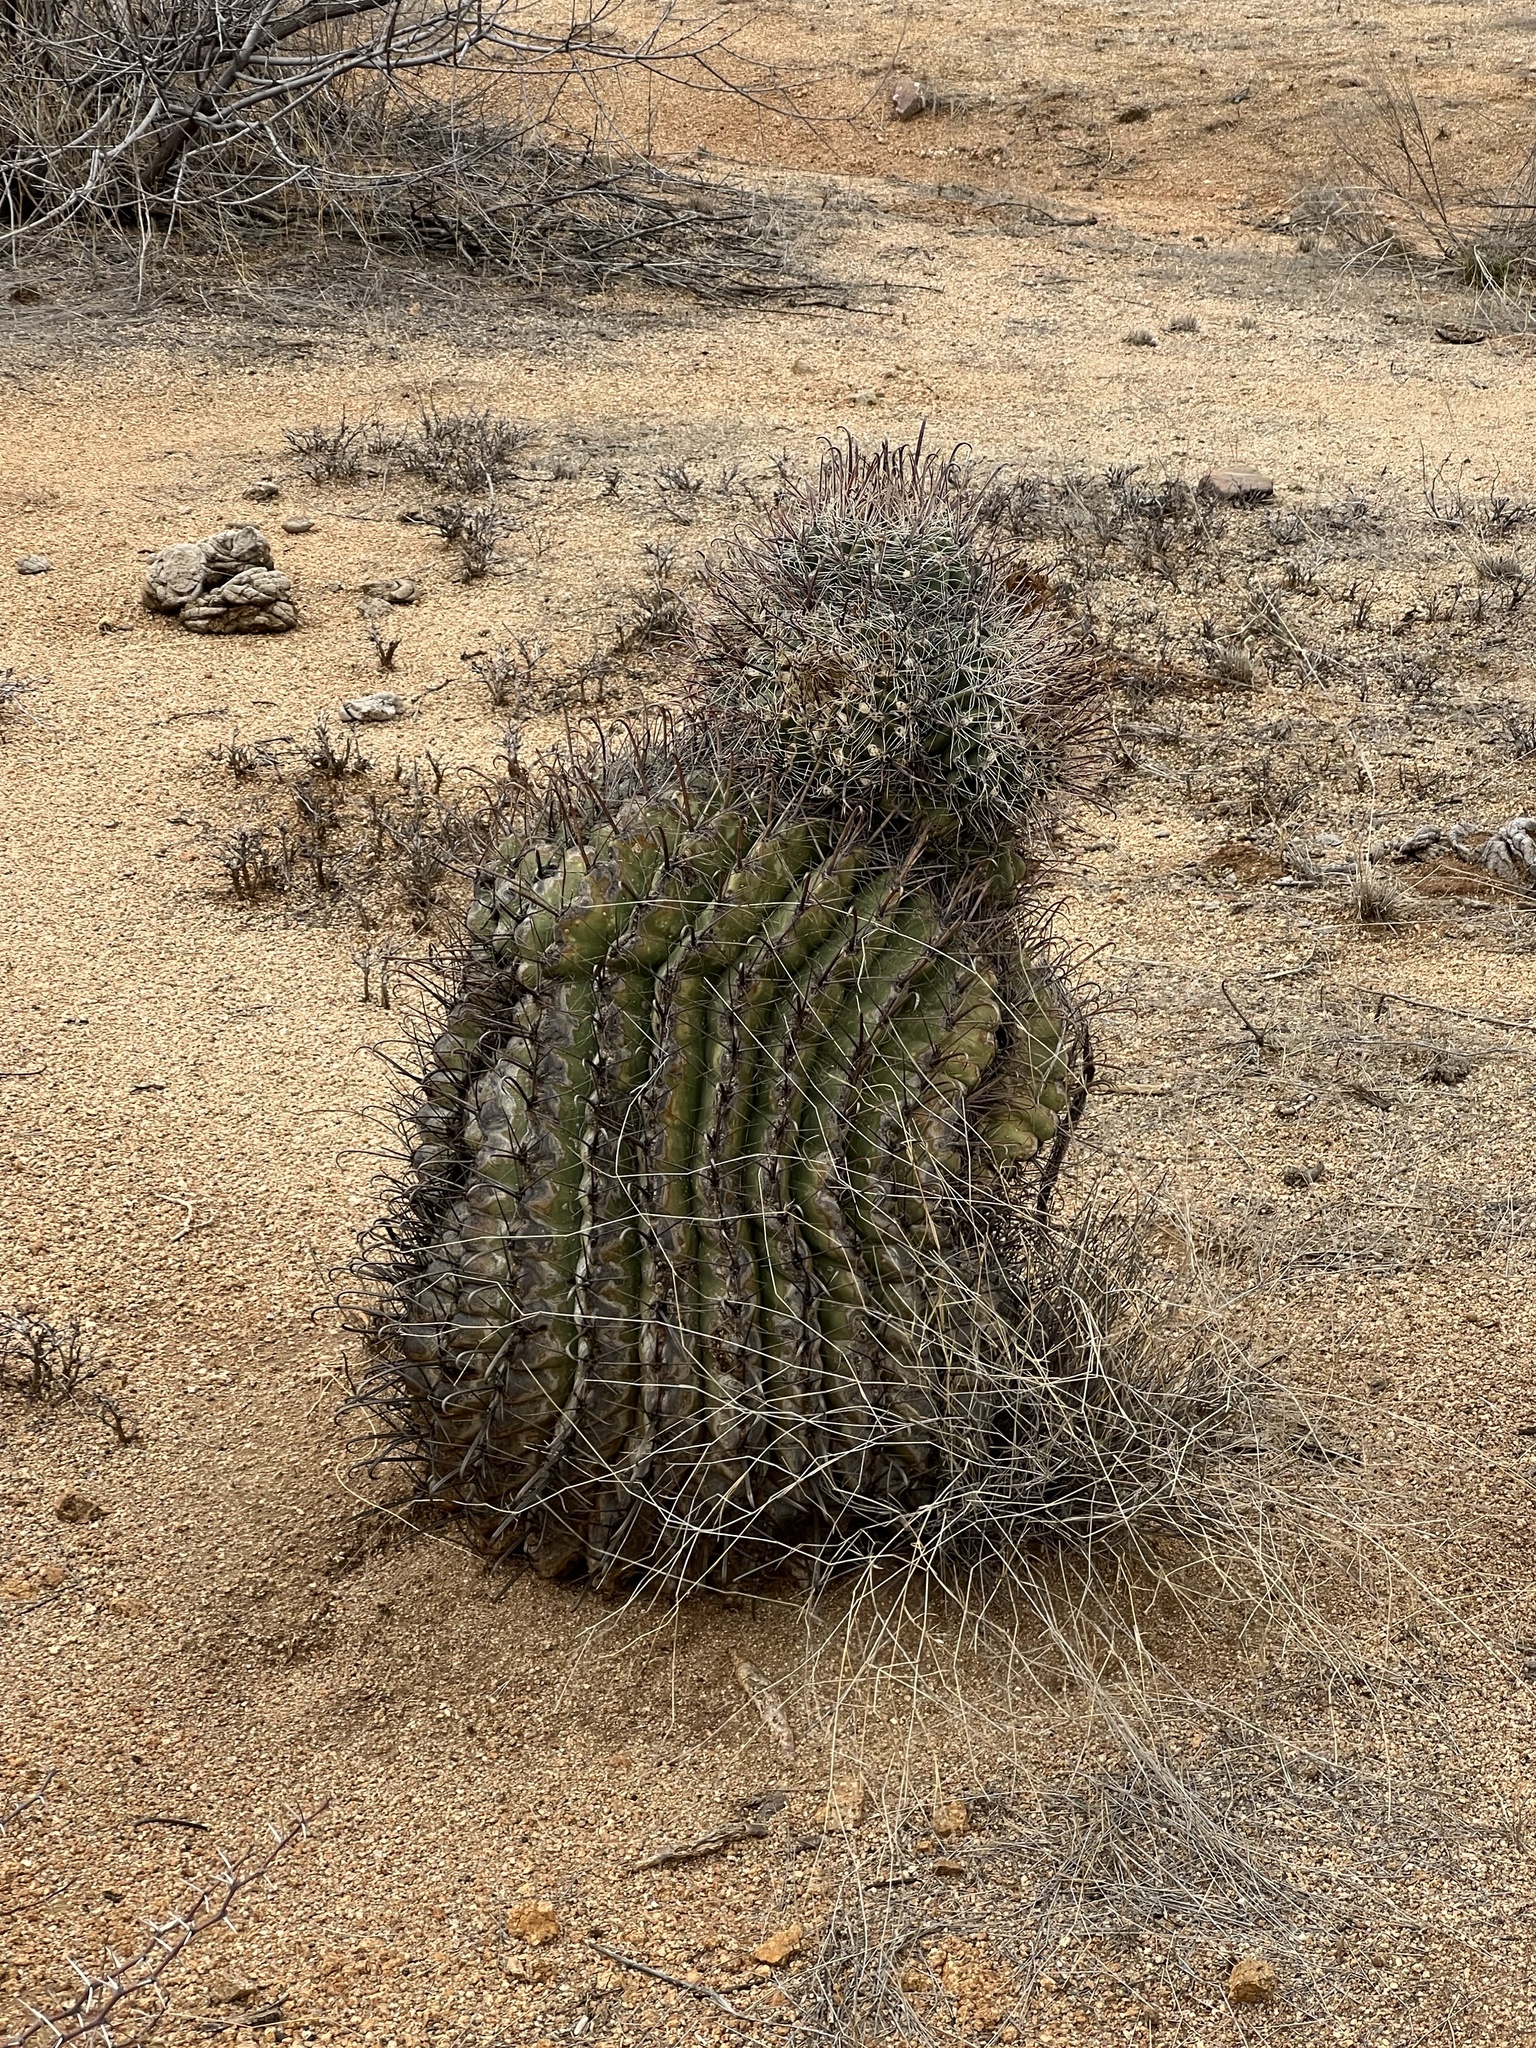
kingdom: Plantae
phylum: Tracheophyta
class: Magnoliopsida
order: Caryophyllales
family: Cactaceae
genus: Ferocactus
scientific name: Ferocactus wislizeni
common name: Candy barrel cactus
